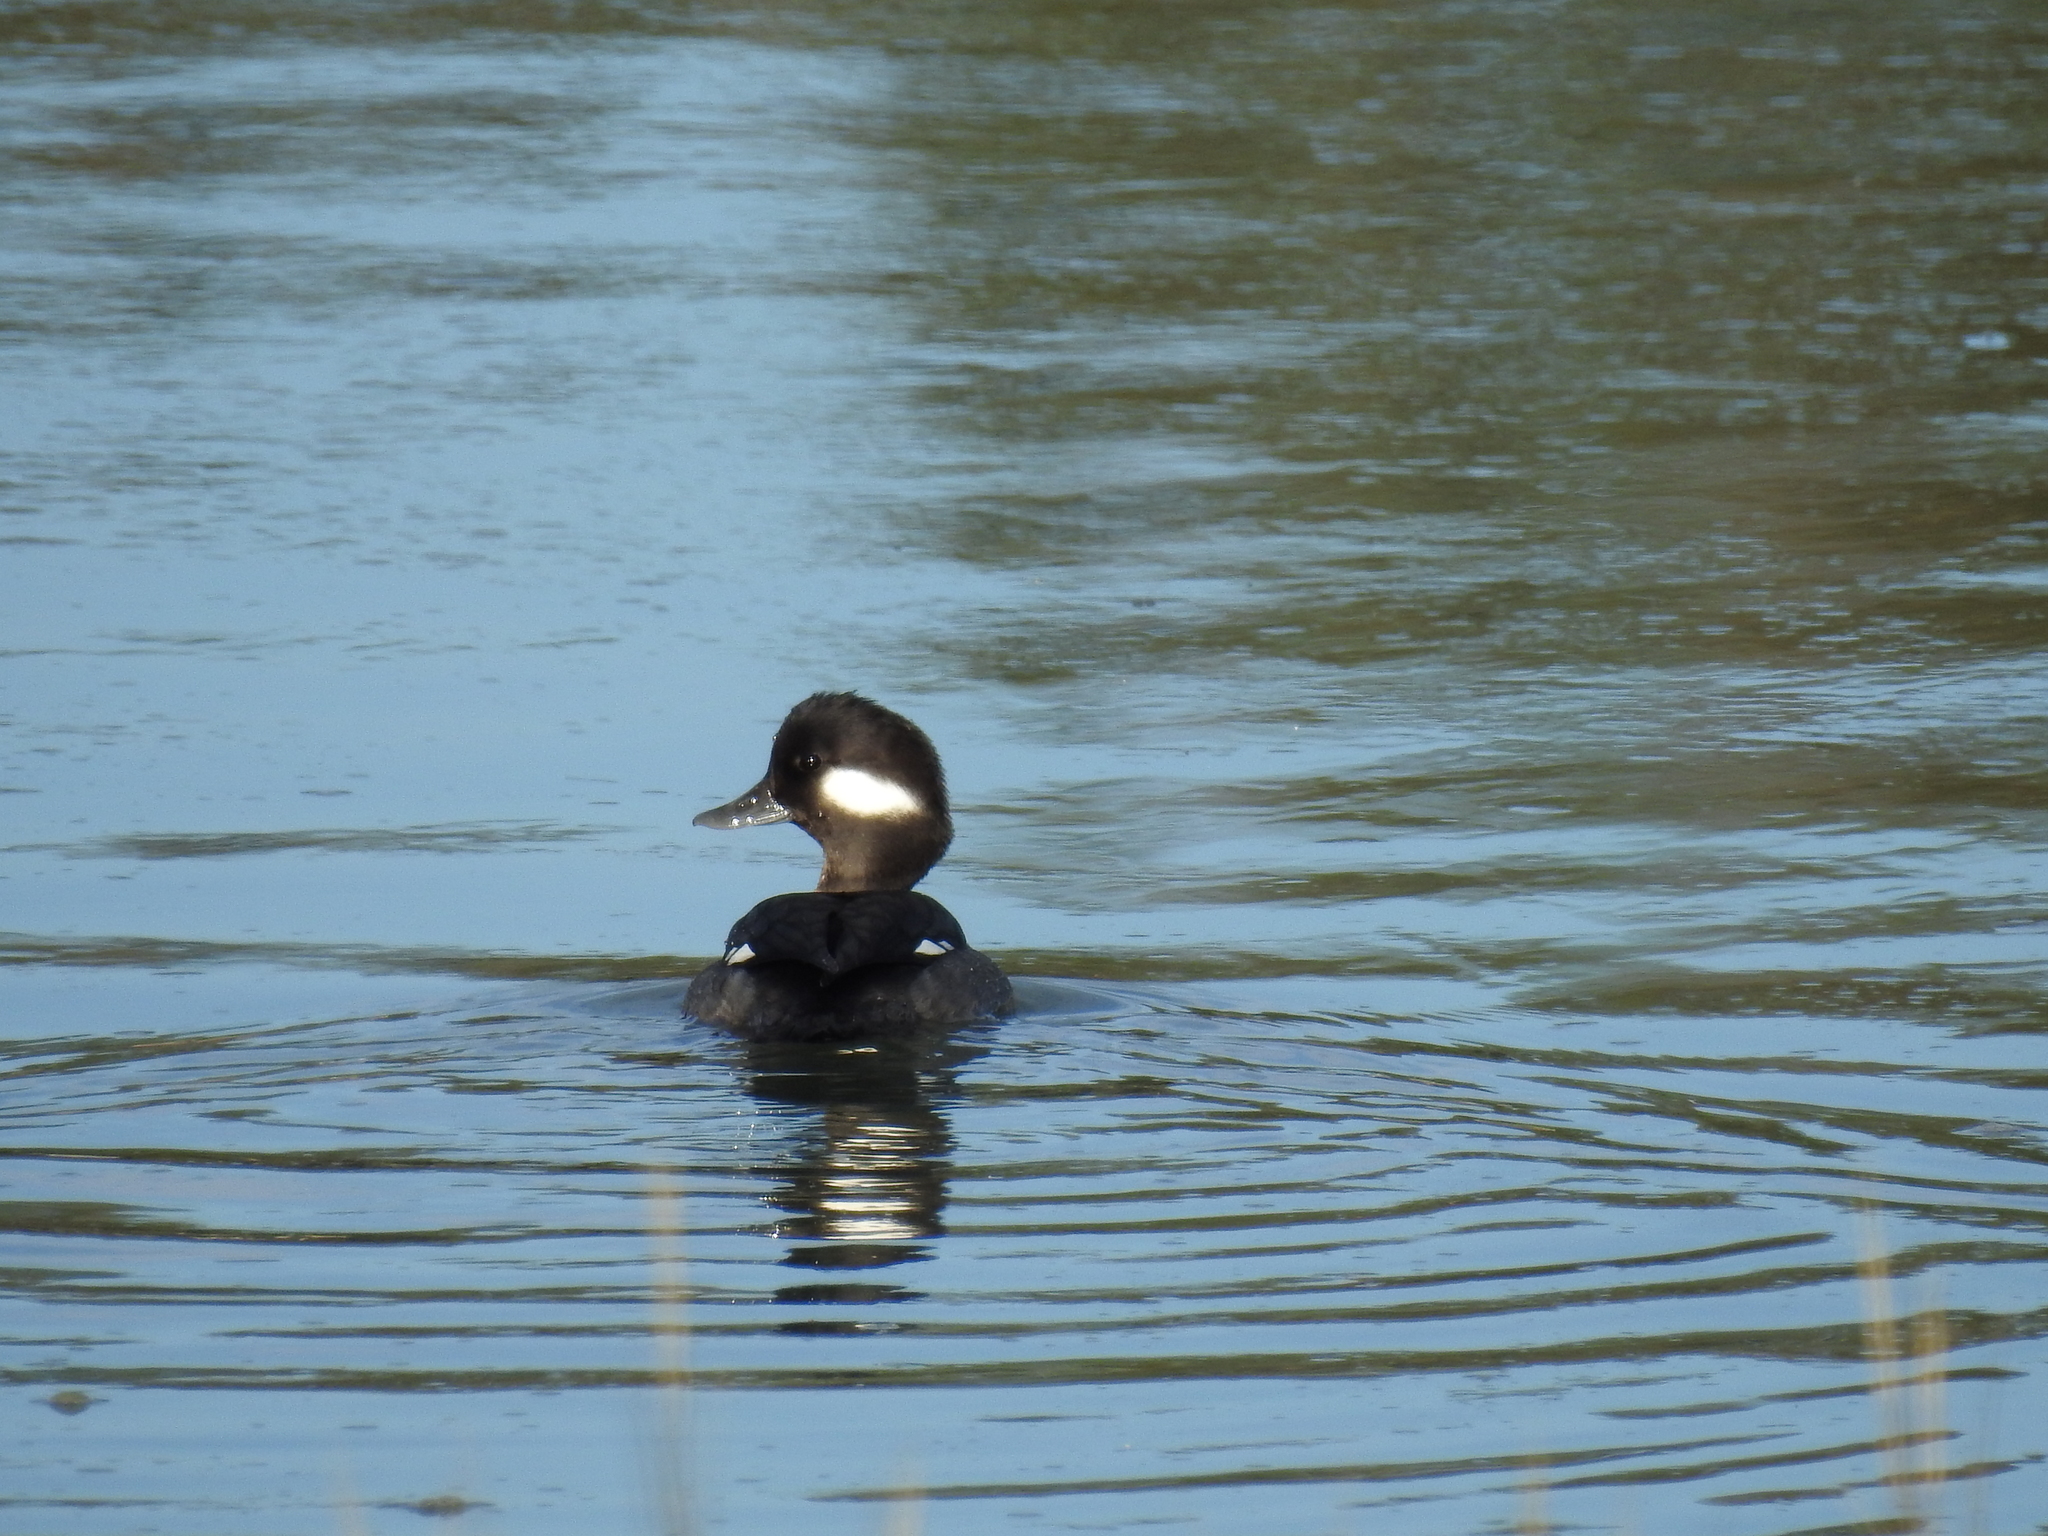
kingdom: Animalia
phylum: Chordata
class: Aves
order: Anseriformes
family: Anatidae
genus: Bucephala
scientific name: Bucephala albeola
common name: Bufflehead
